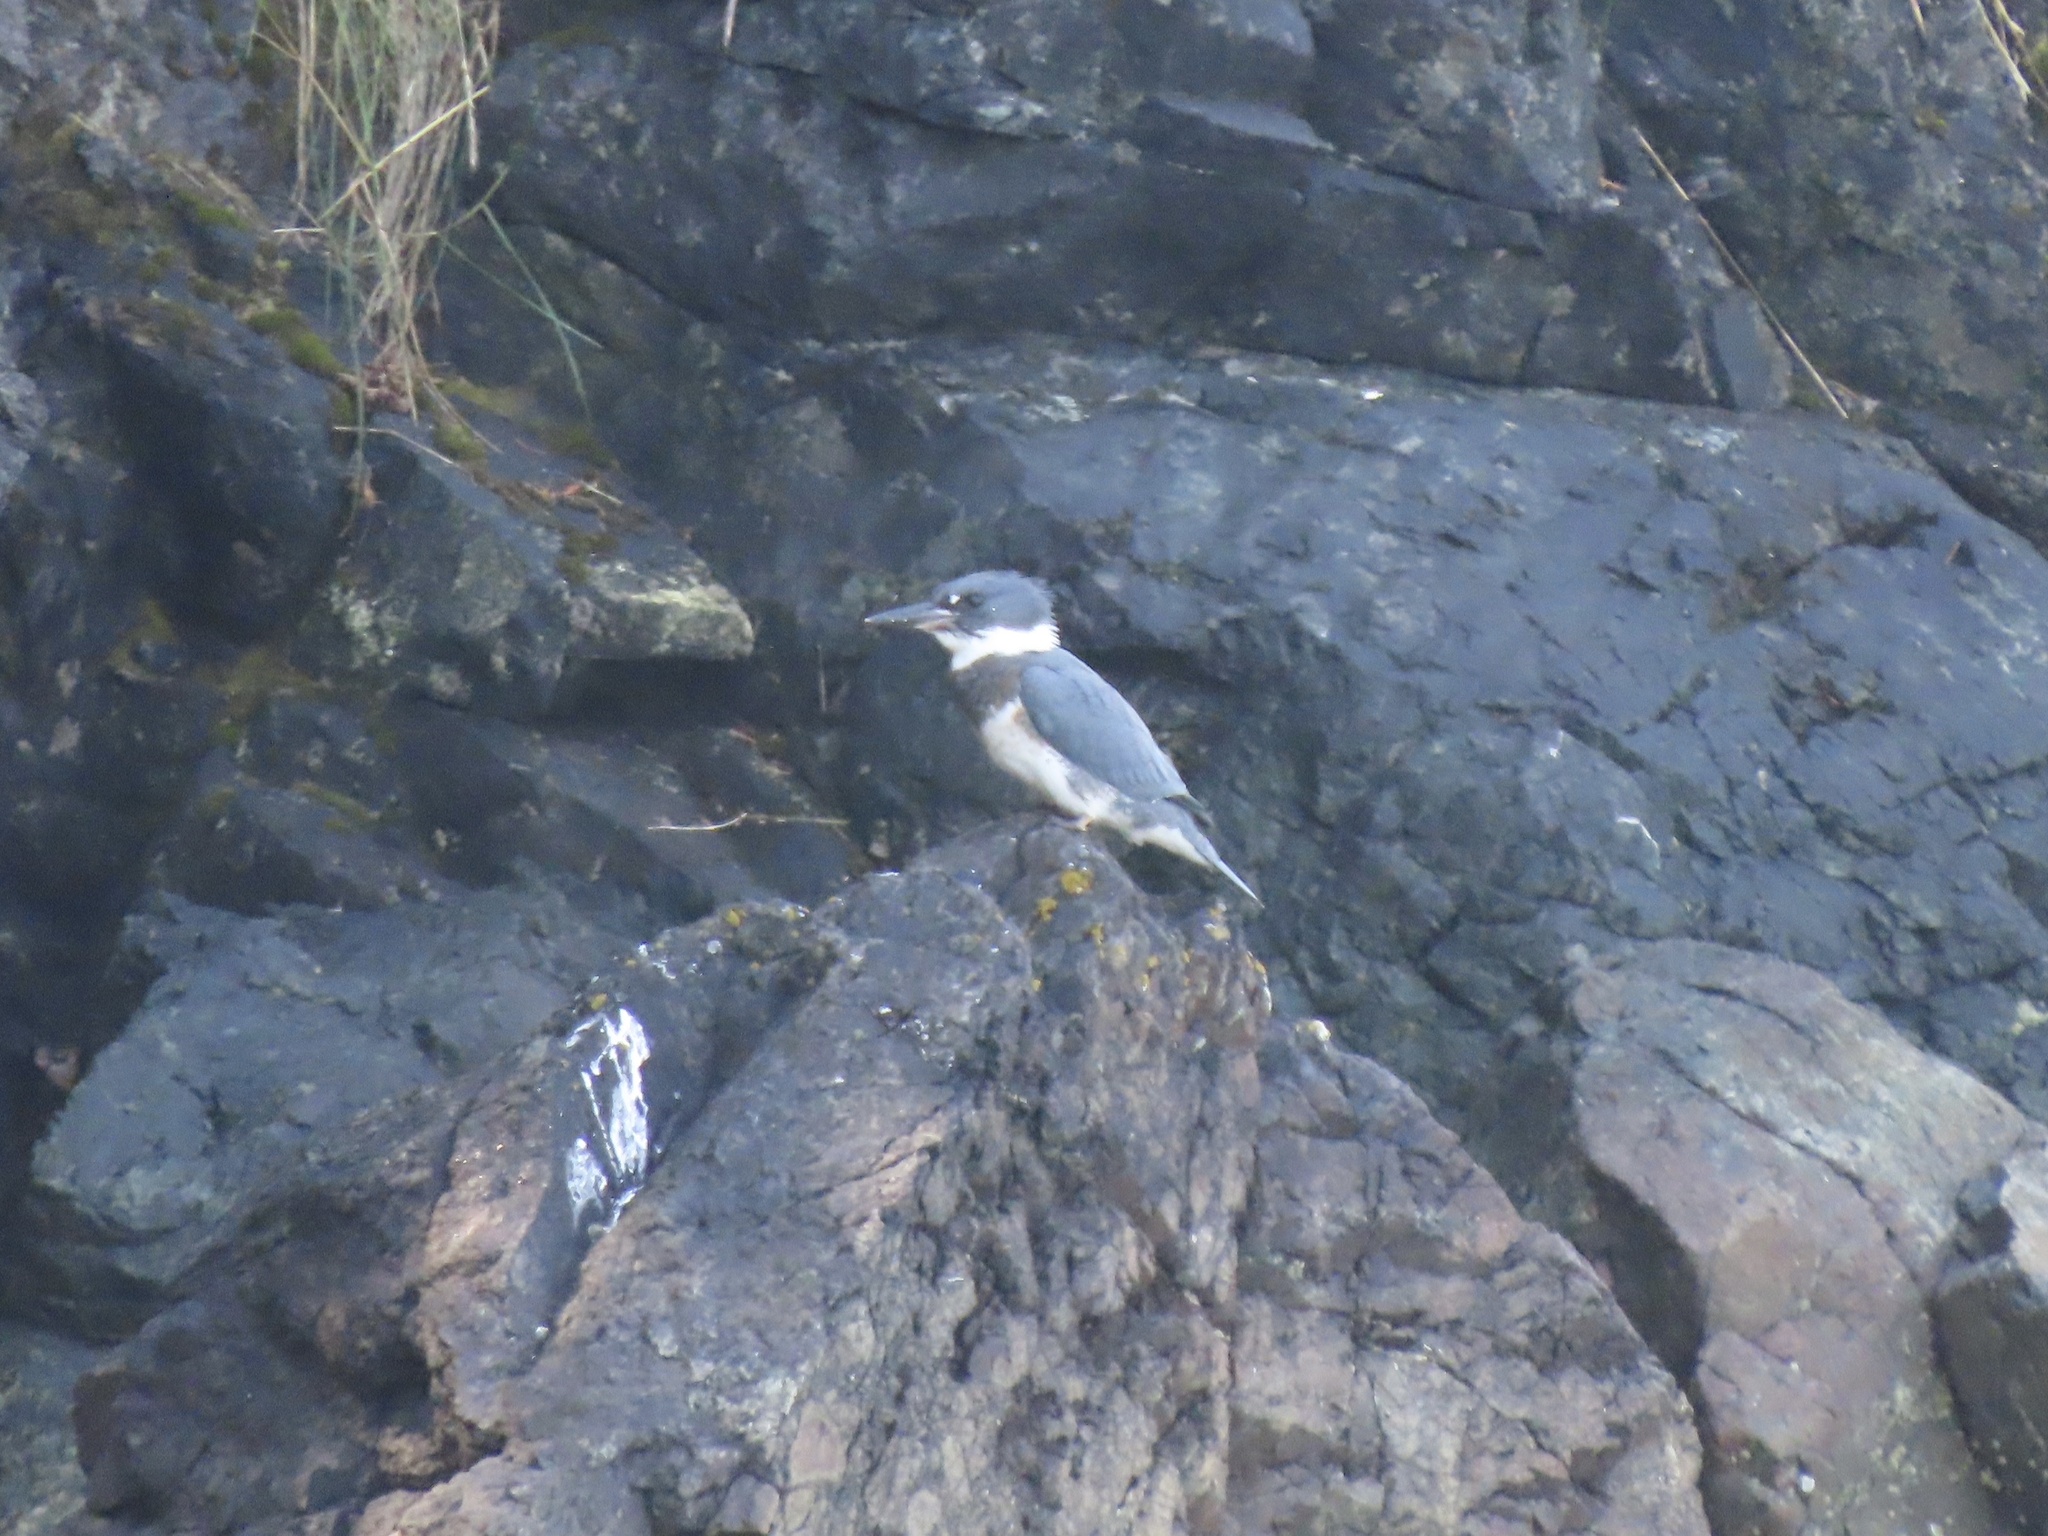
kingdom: Animalia
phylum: Chordata
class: Aves
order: Coraciiformes
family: Alcedinidae
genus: Megaceryle
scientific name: Megaceryle alcyon
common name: Belted kingfisher
